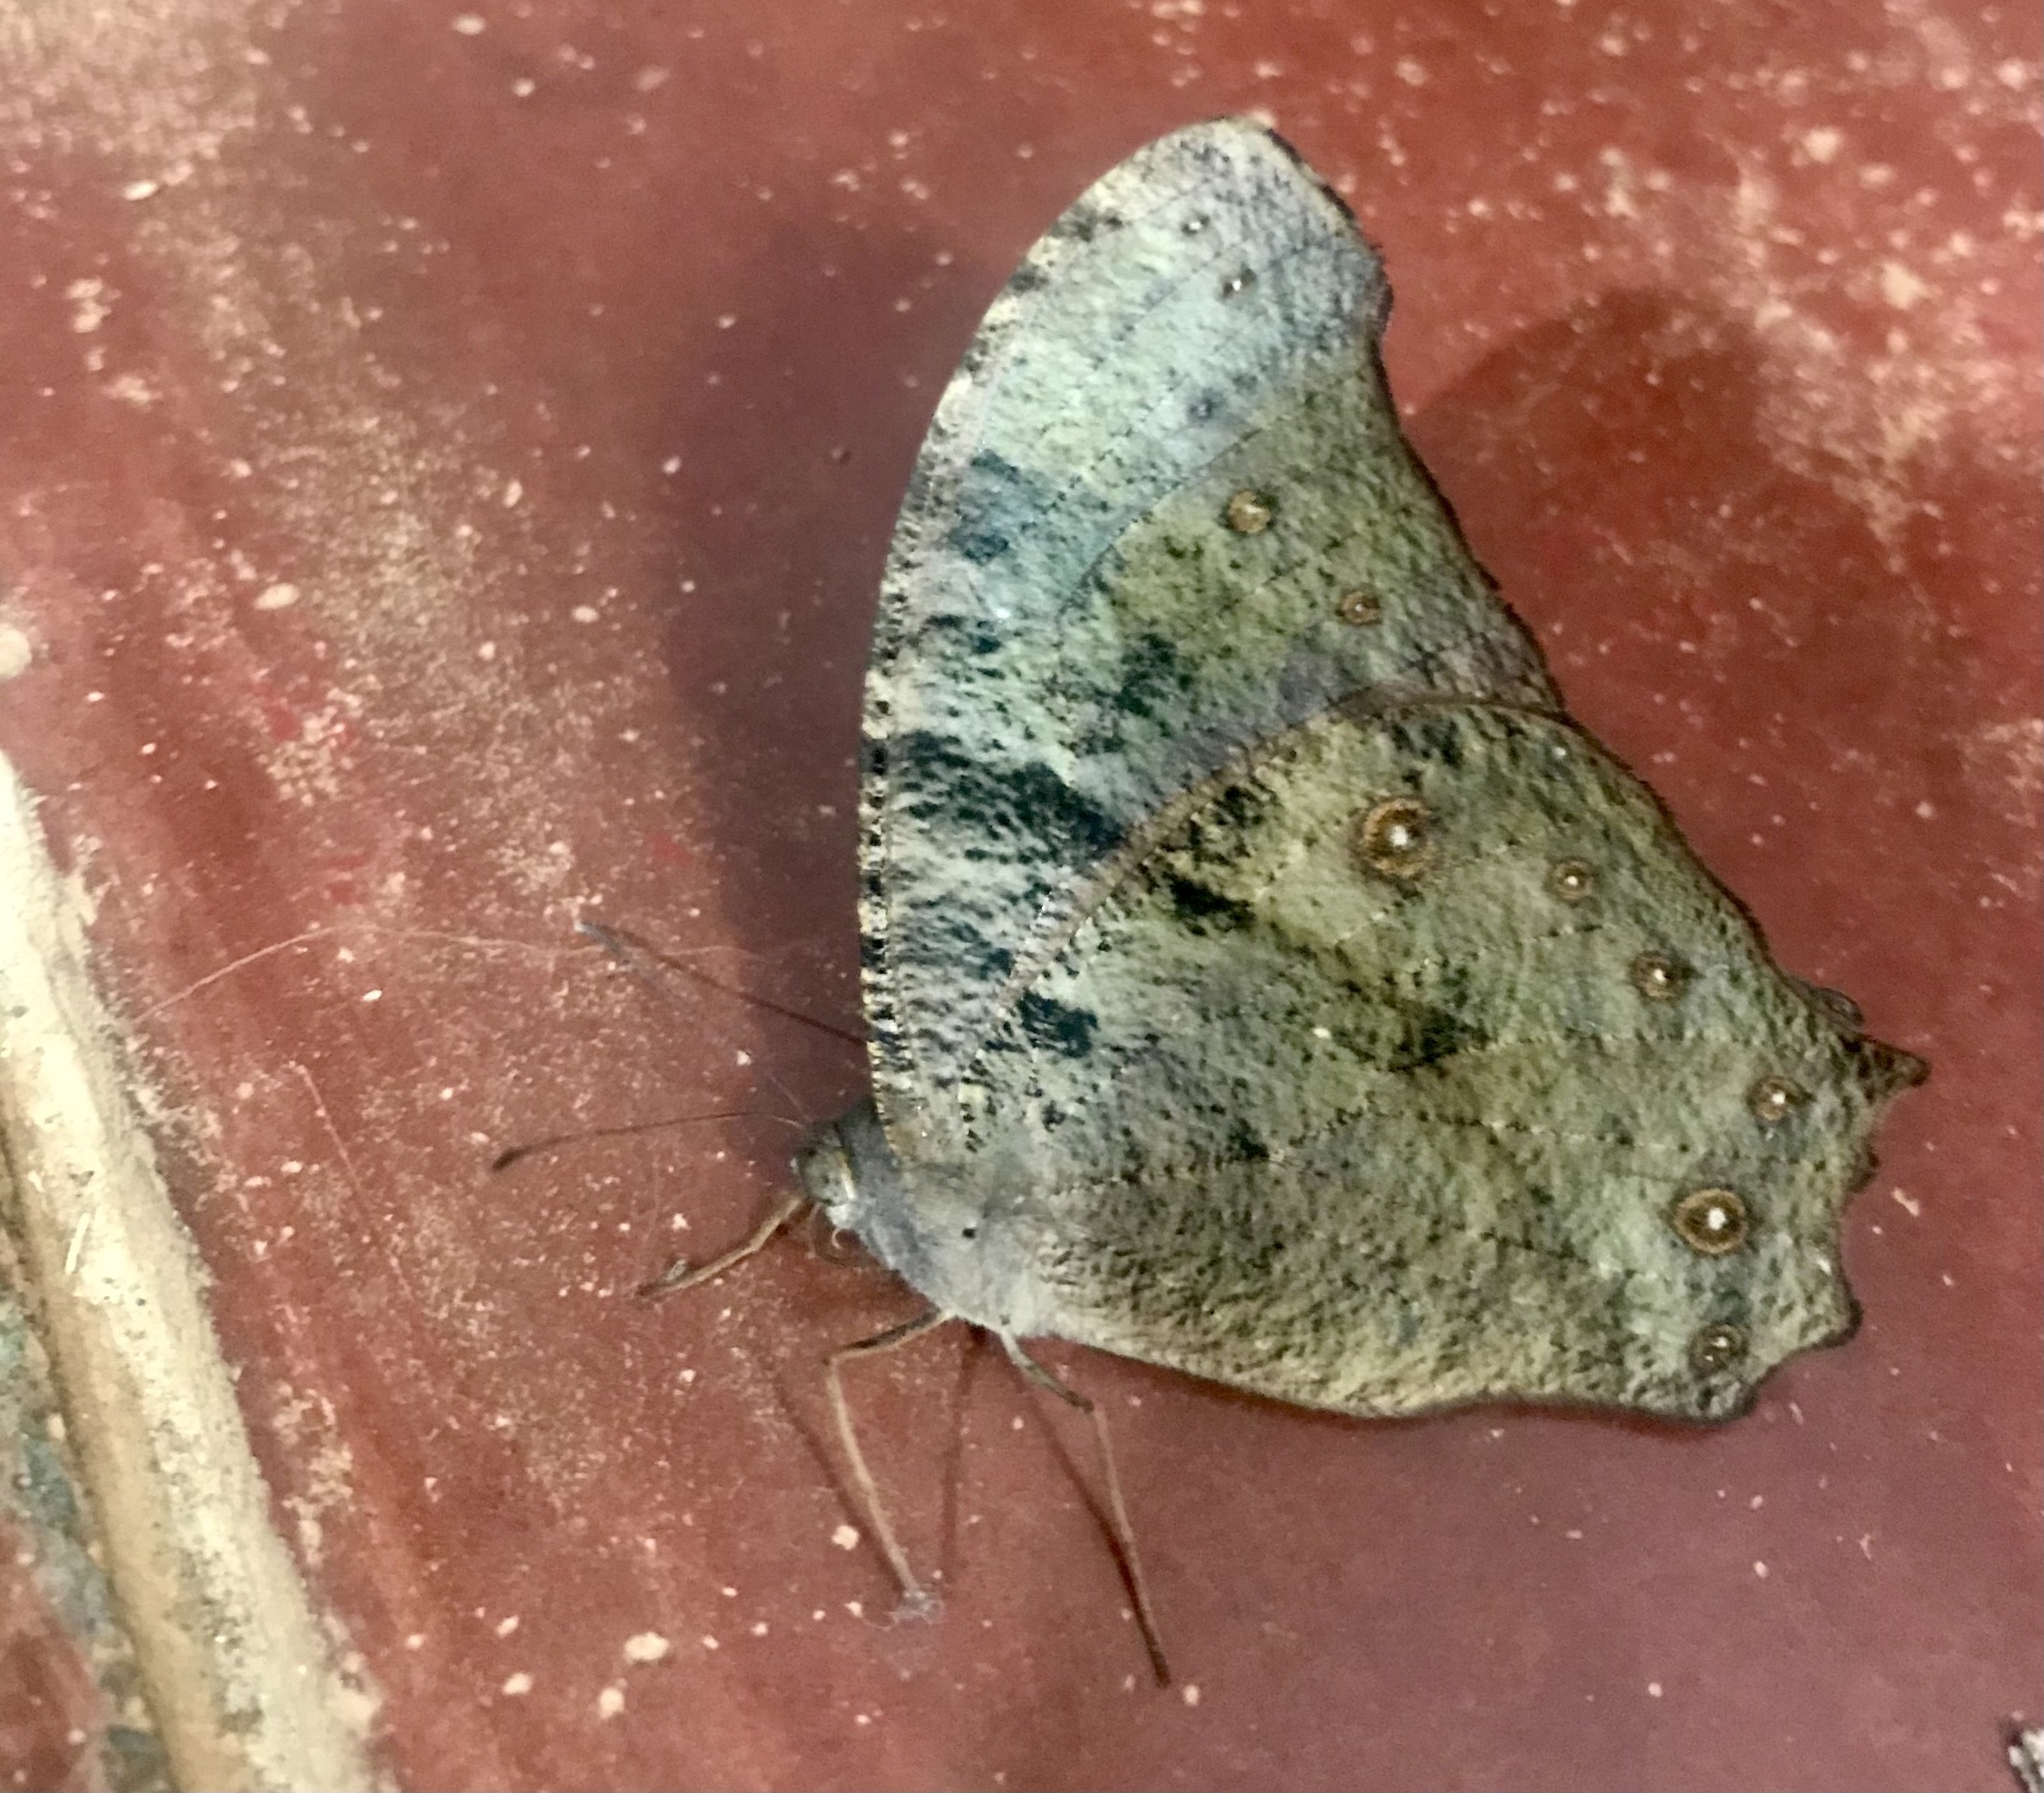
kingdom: Animalia
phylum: Arthropoda
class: Insecta
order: Lepidoptera
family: Nymphalidae
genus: Melanitis
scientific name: Melanitis leda
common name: Twilight brown
